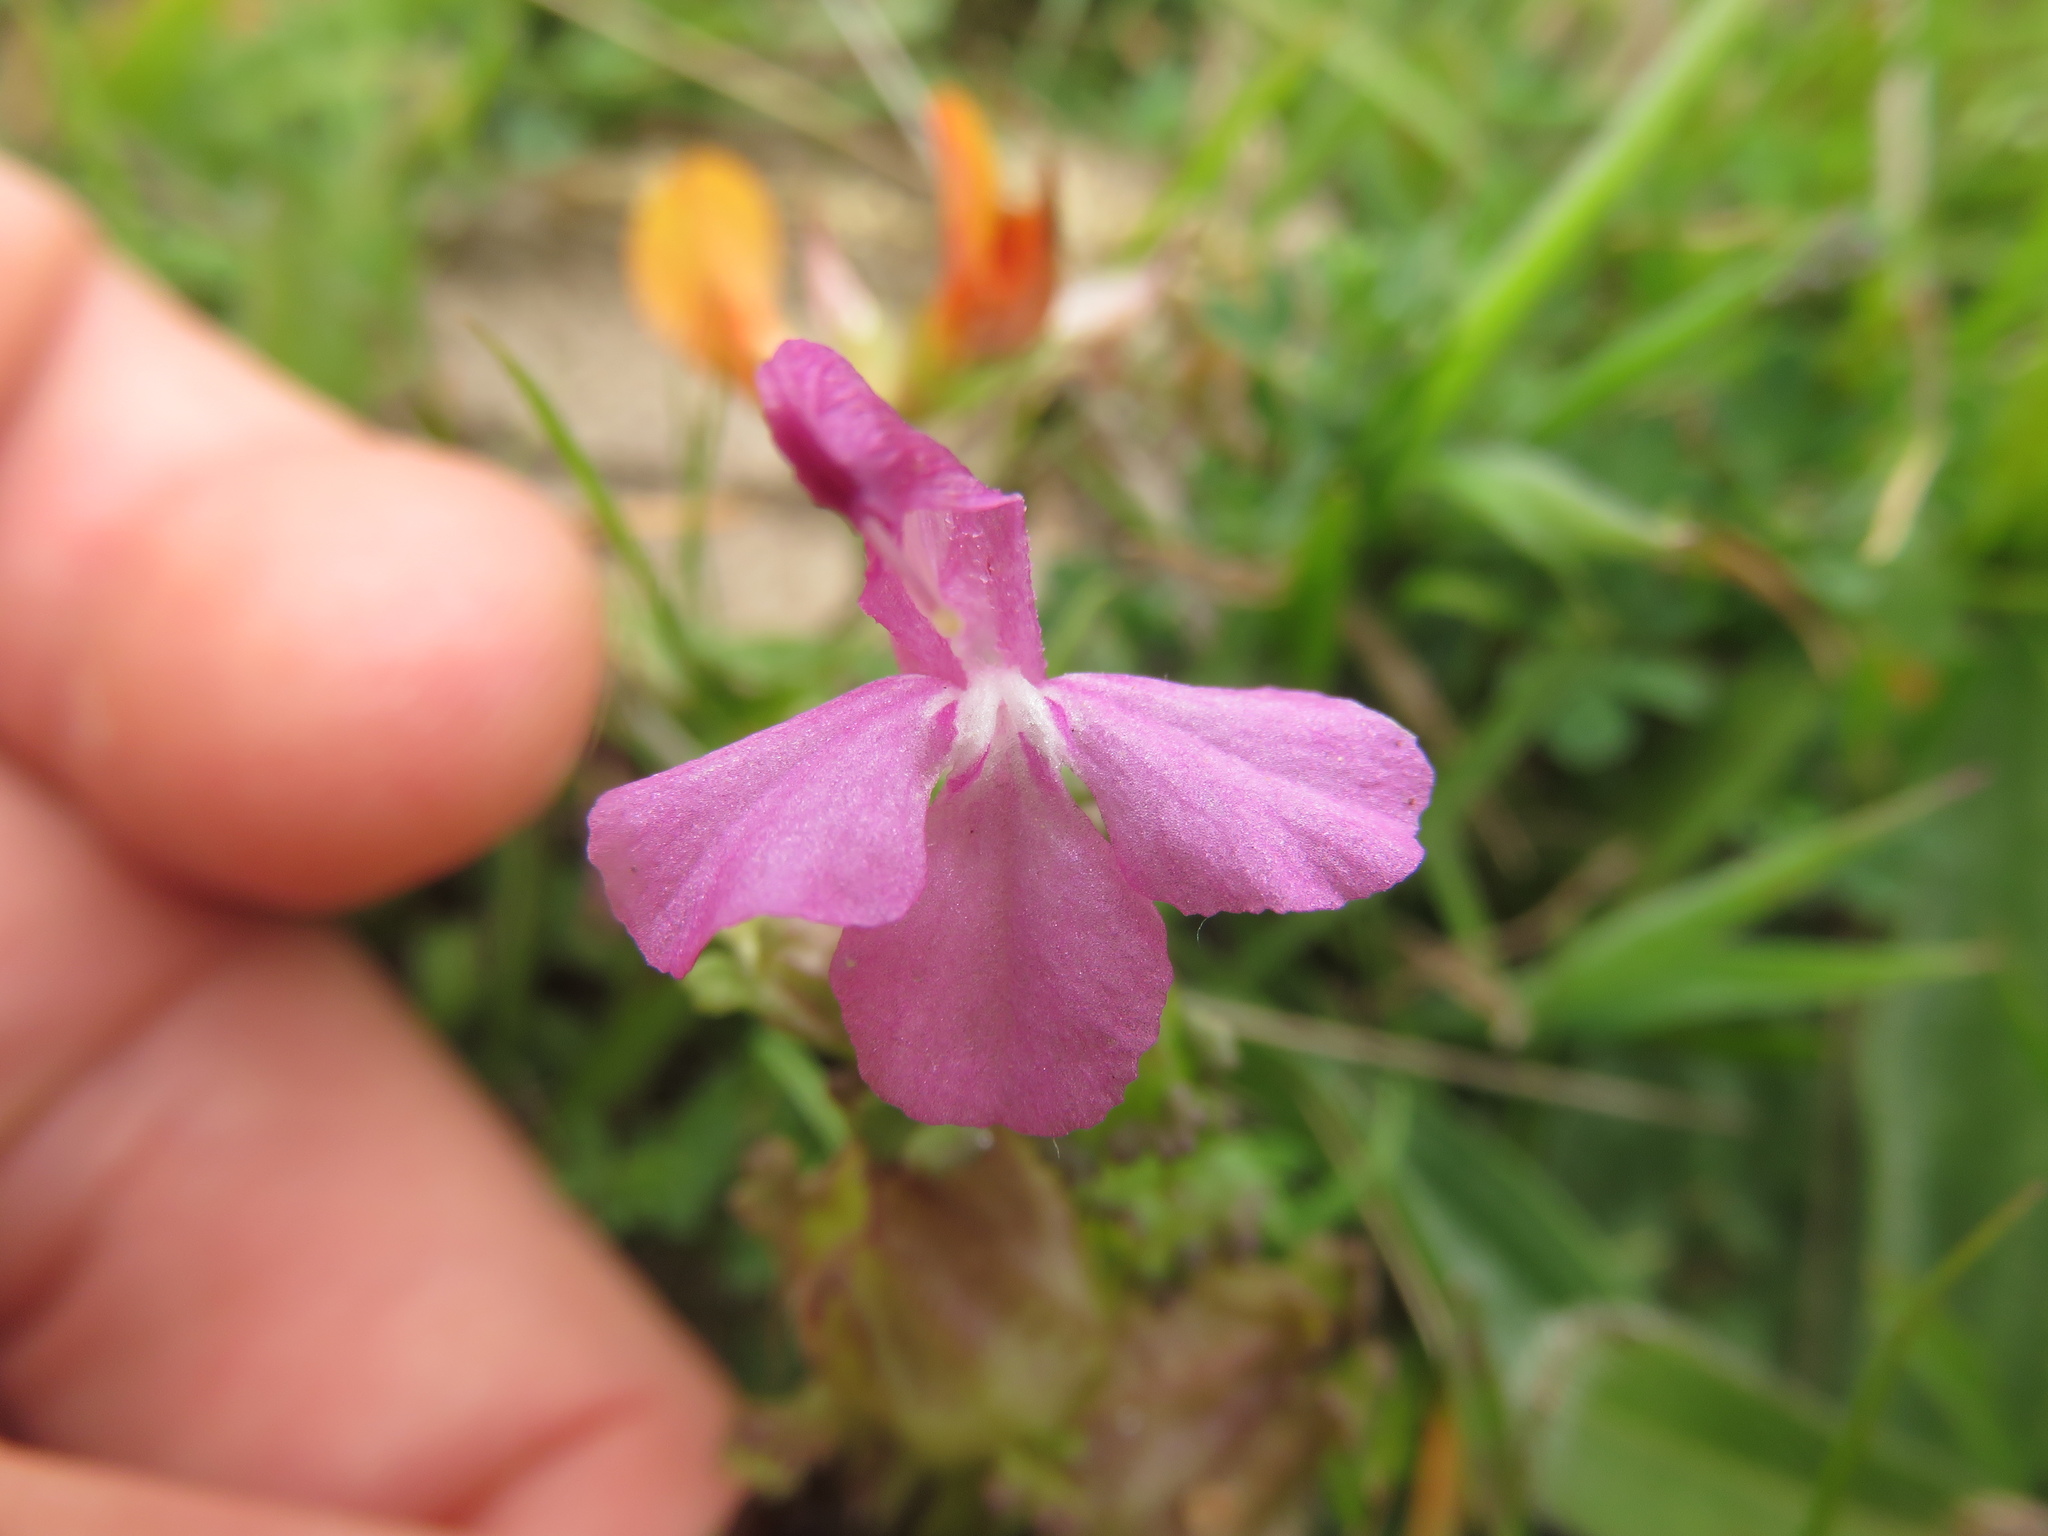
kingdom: Plantae
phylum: Tracheophyta
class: Magnoliopsida
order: Lamiales
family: Orobanchaceae
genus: Pedicularis
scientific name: Pedicularis sylvatica
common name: Lousewort
